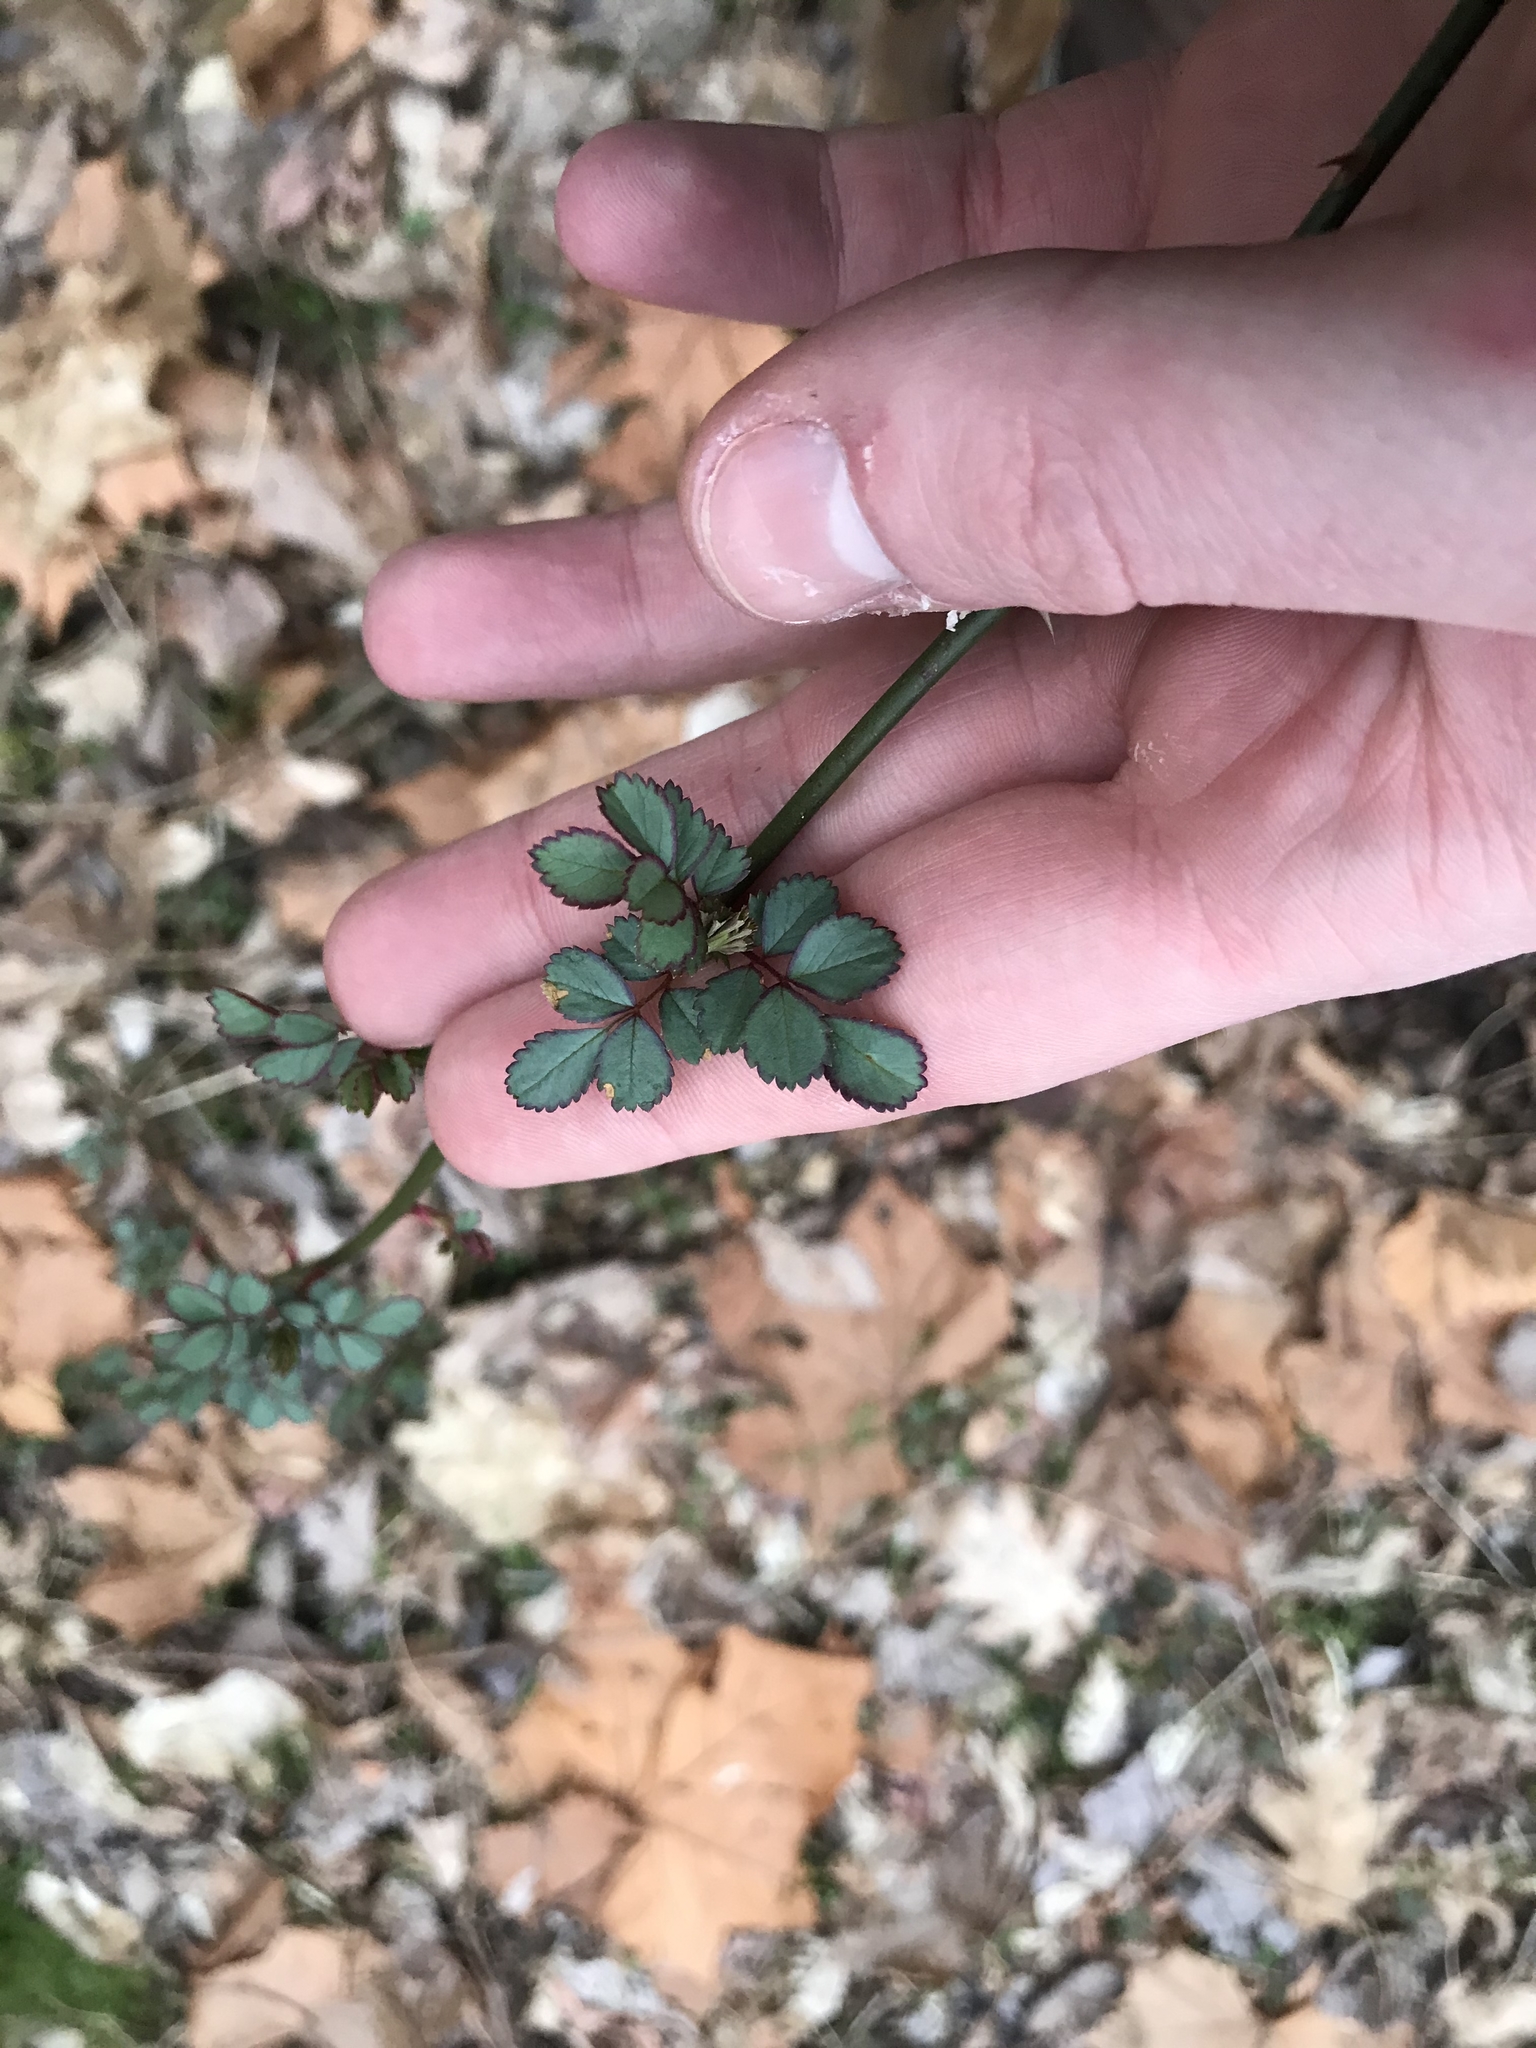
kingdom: Plantae
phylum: Tracheophyta
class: Magnoliopsida
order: Rosales
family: Rosaceae
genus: Rosa
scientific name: Rosa multiflora
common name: Multiflora rose
